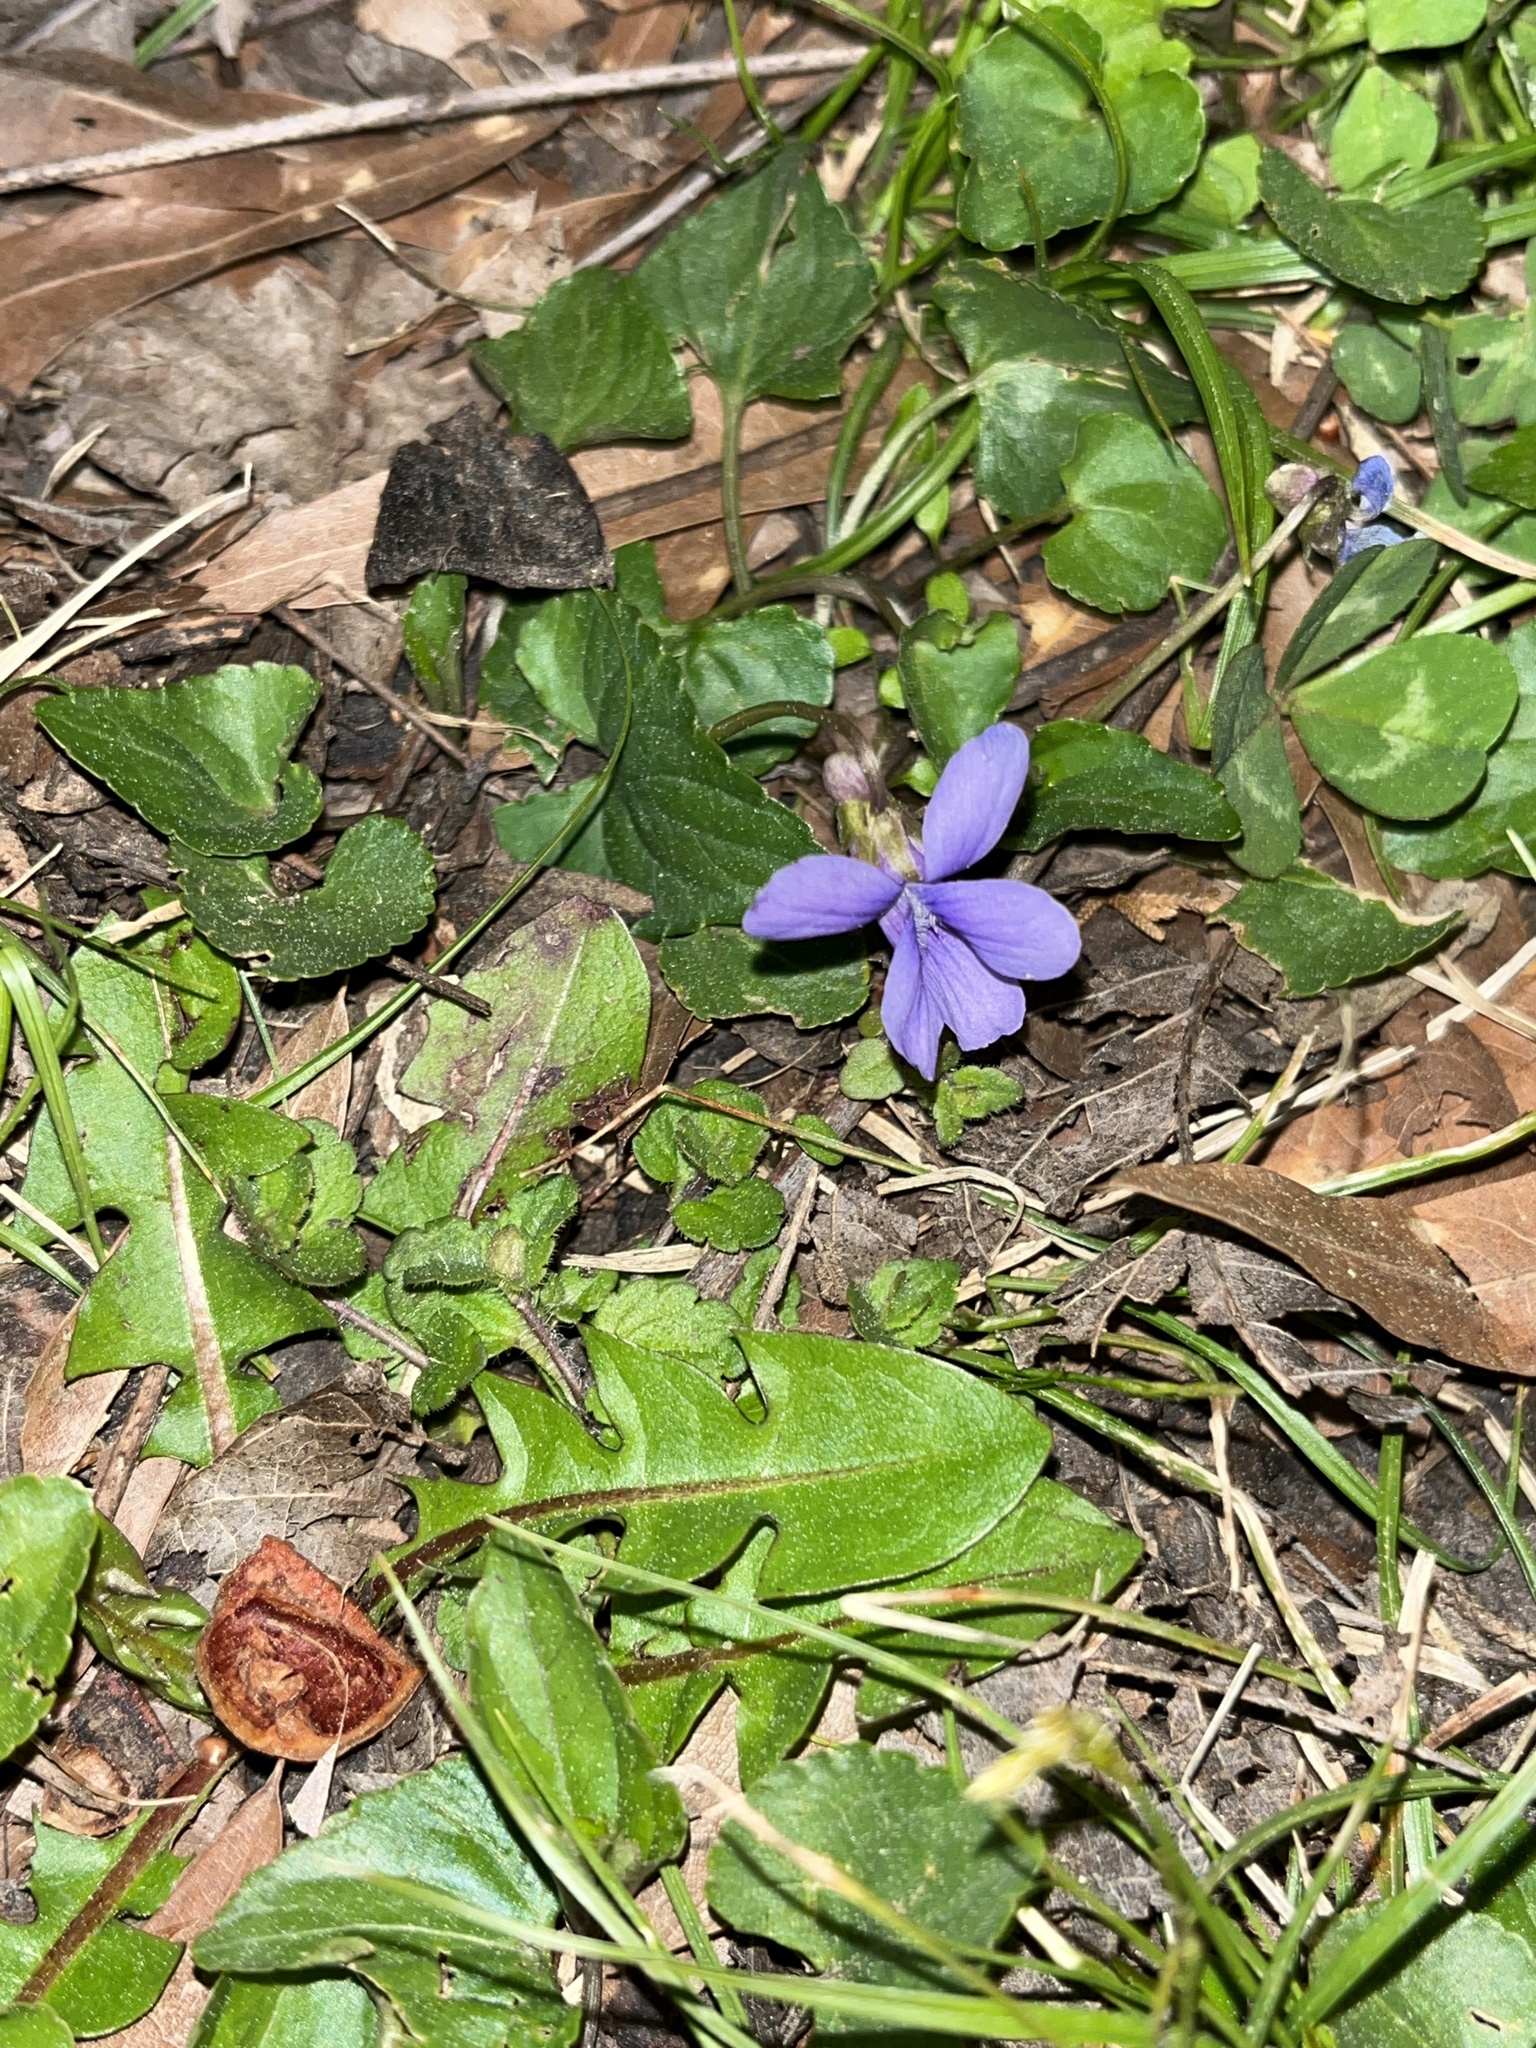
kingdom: Plantae
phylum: Tracheophyta
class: Magnoliopsida
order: Malpighiales
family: Violaceae
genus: Viola
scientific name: Viola sororia
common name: Dooryard violet
